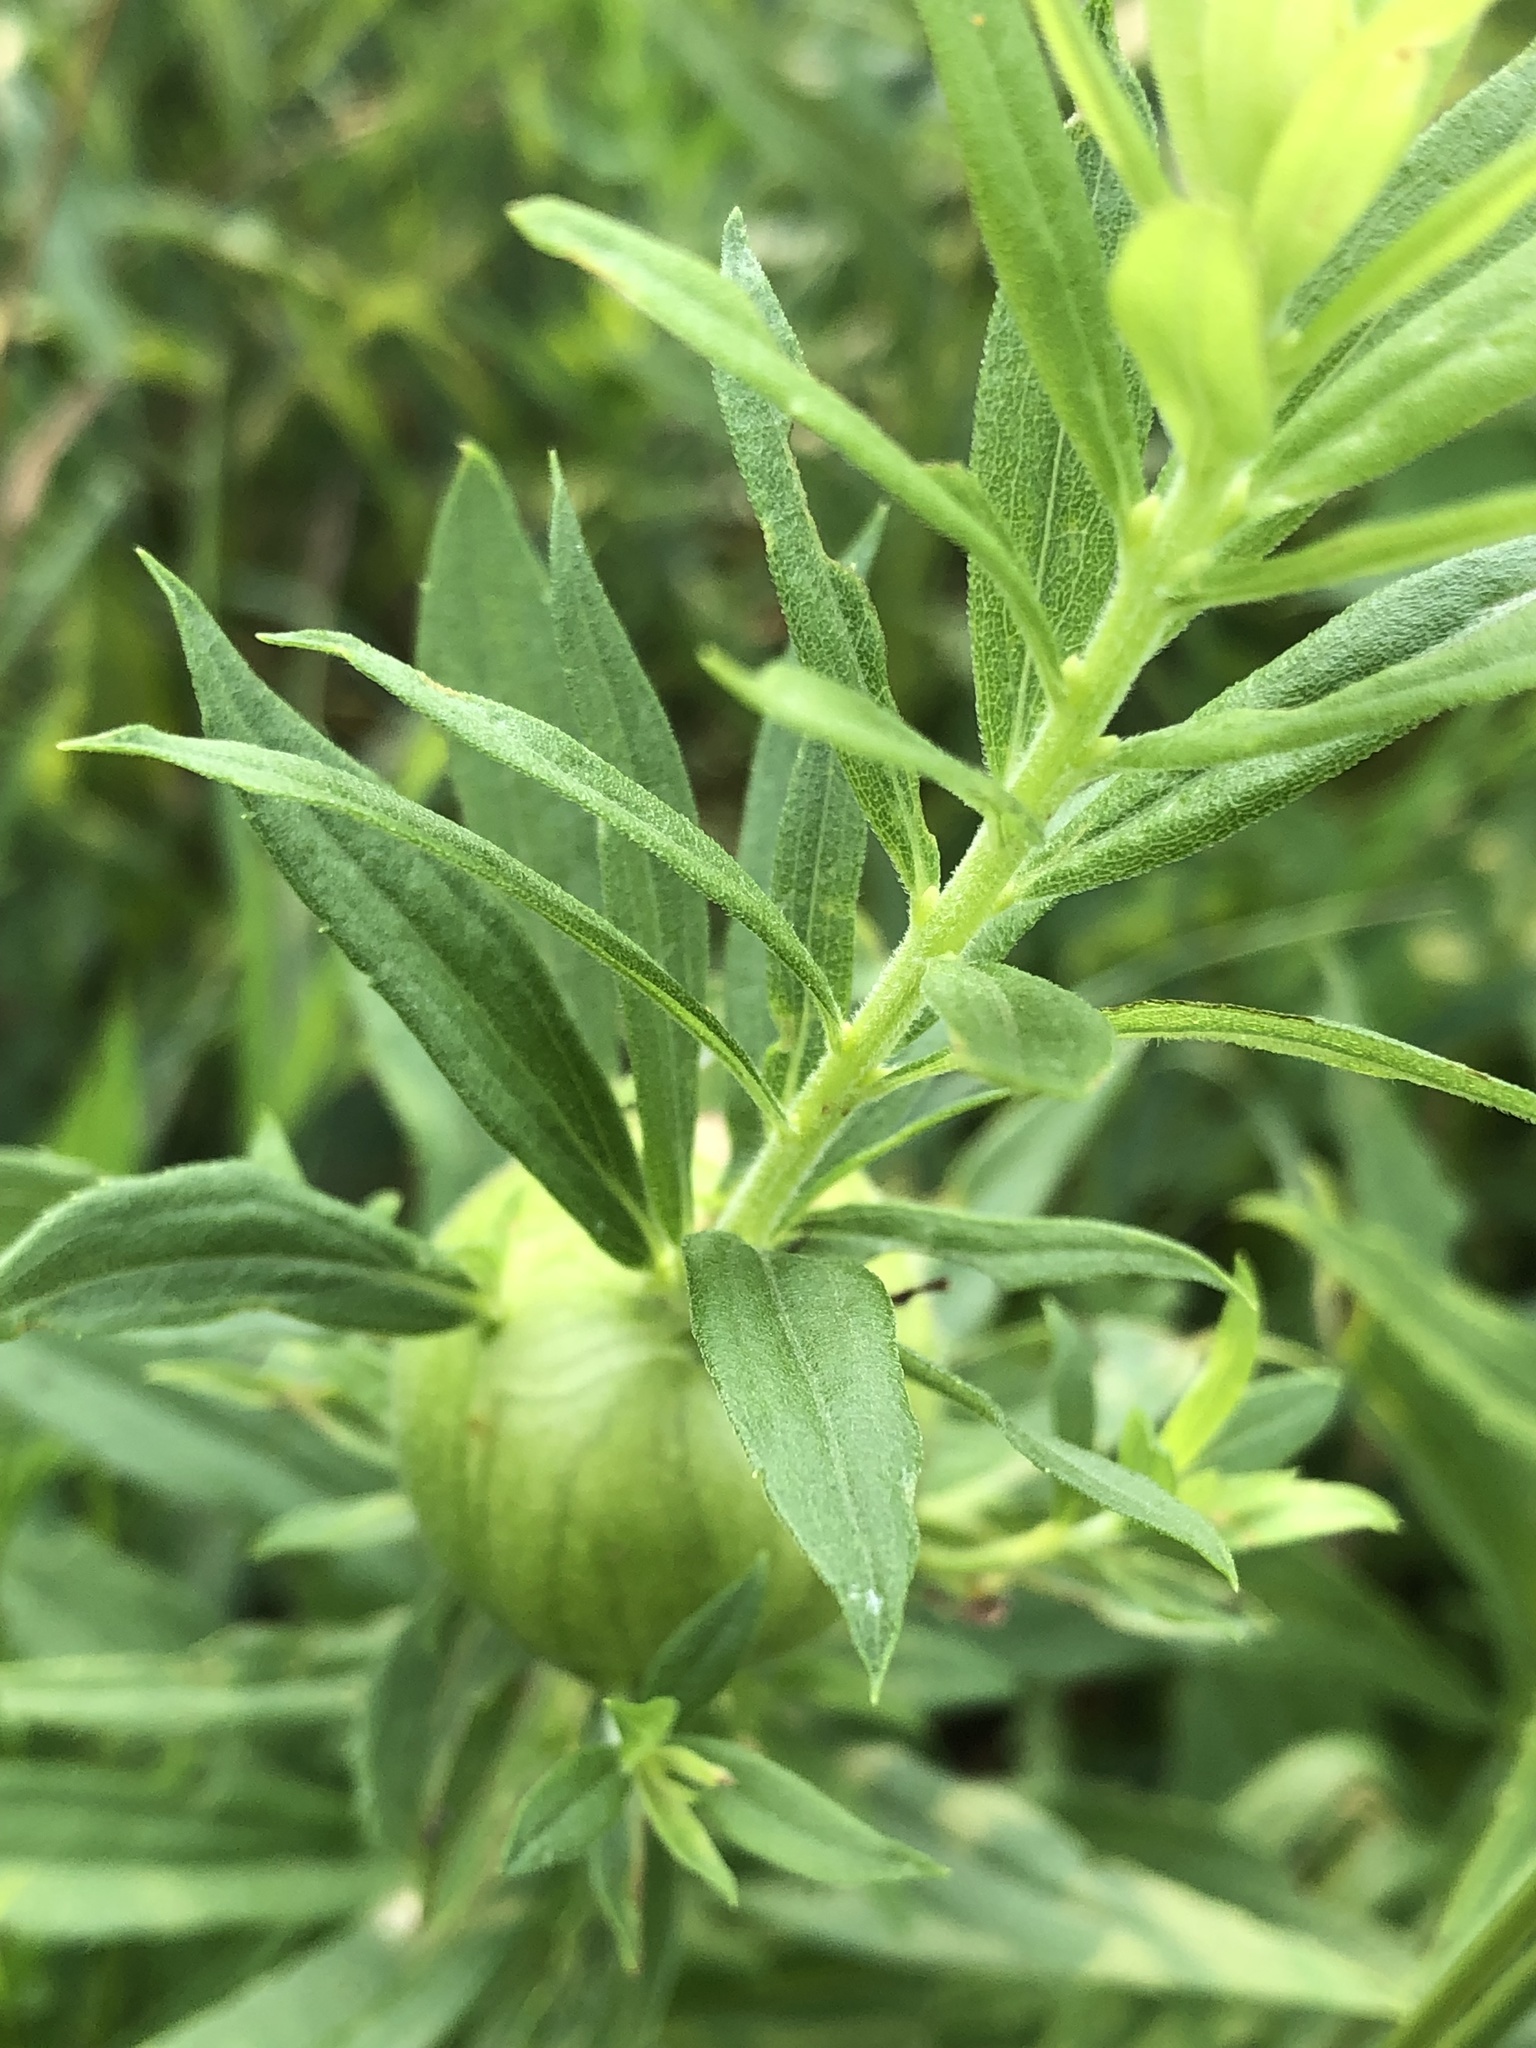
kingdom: Animalia
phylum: Arthropoda
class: Insecta
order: Diptera
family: Tephritidae
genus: Eurosta
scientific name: Eurosta solidaginis
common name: Goldenrod gall fly
